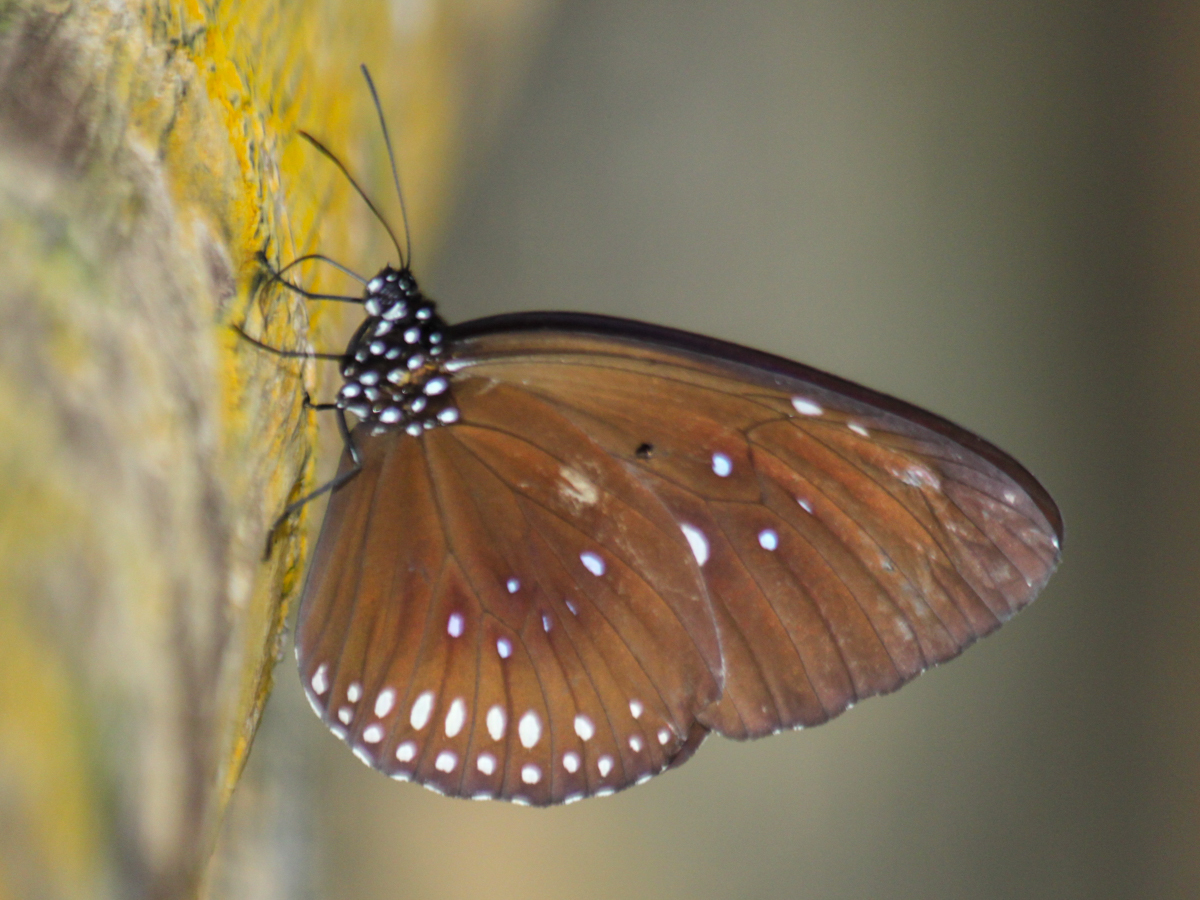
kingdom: Animalia
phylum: Arthropoda
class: Insecta
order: Lepidoptera
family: Nymphalidae
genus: Euploea
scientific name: Euploea modesta
